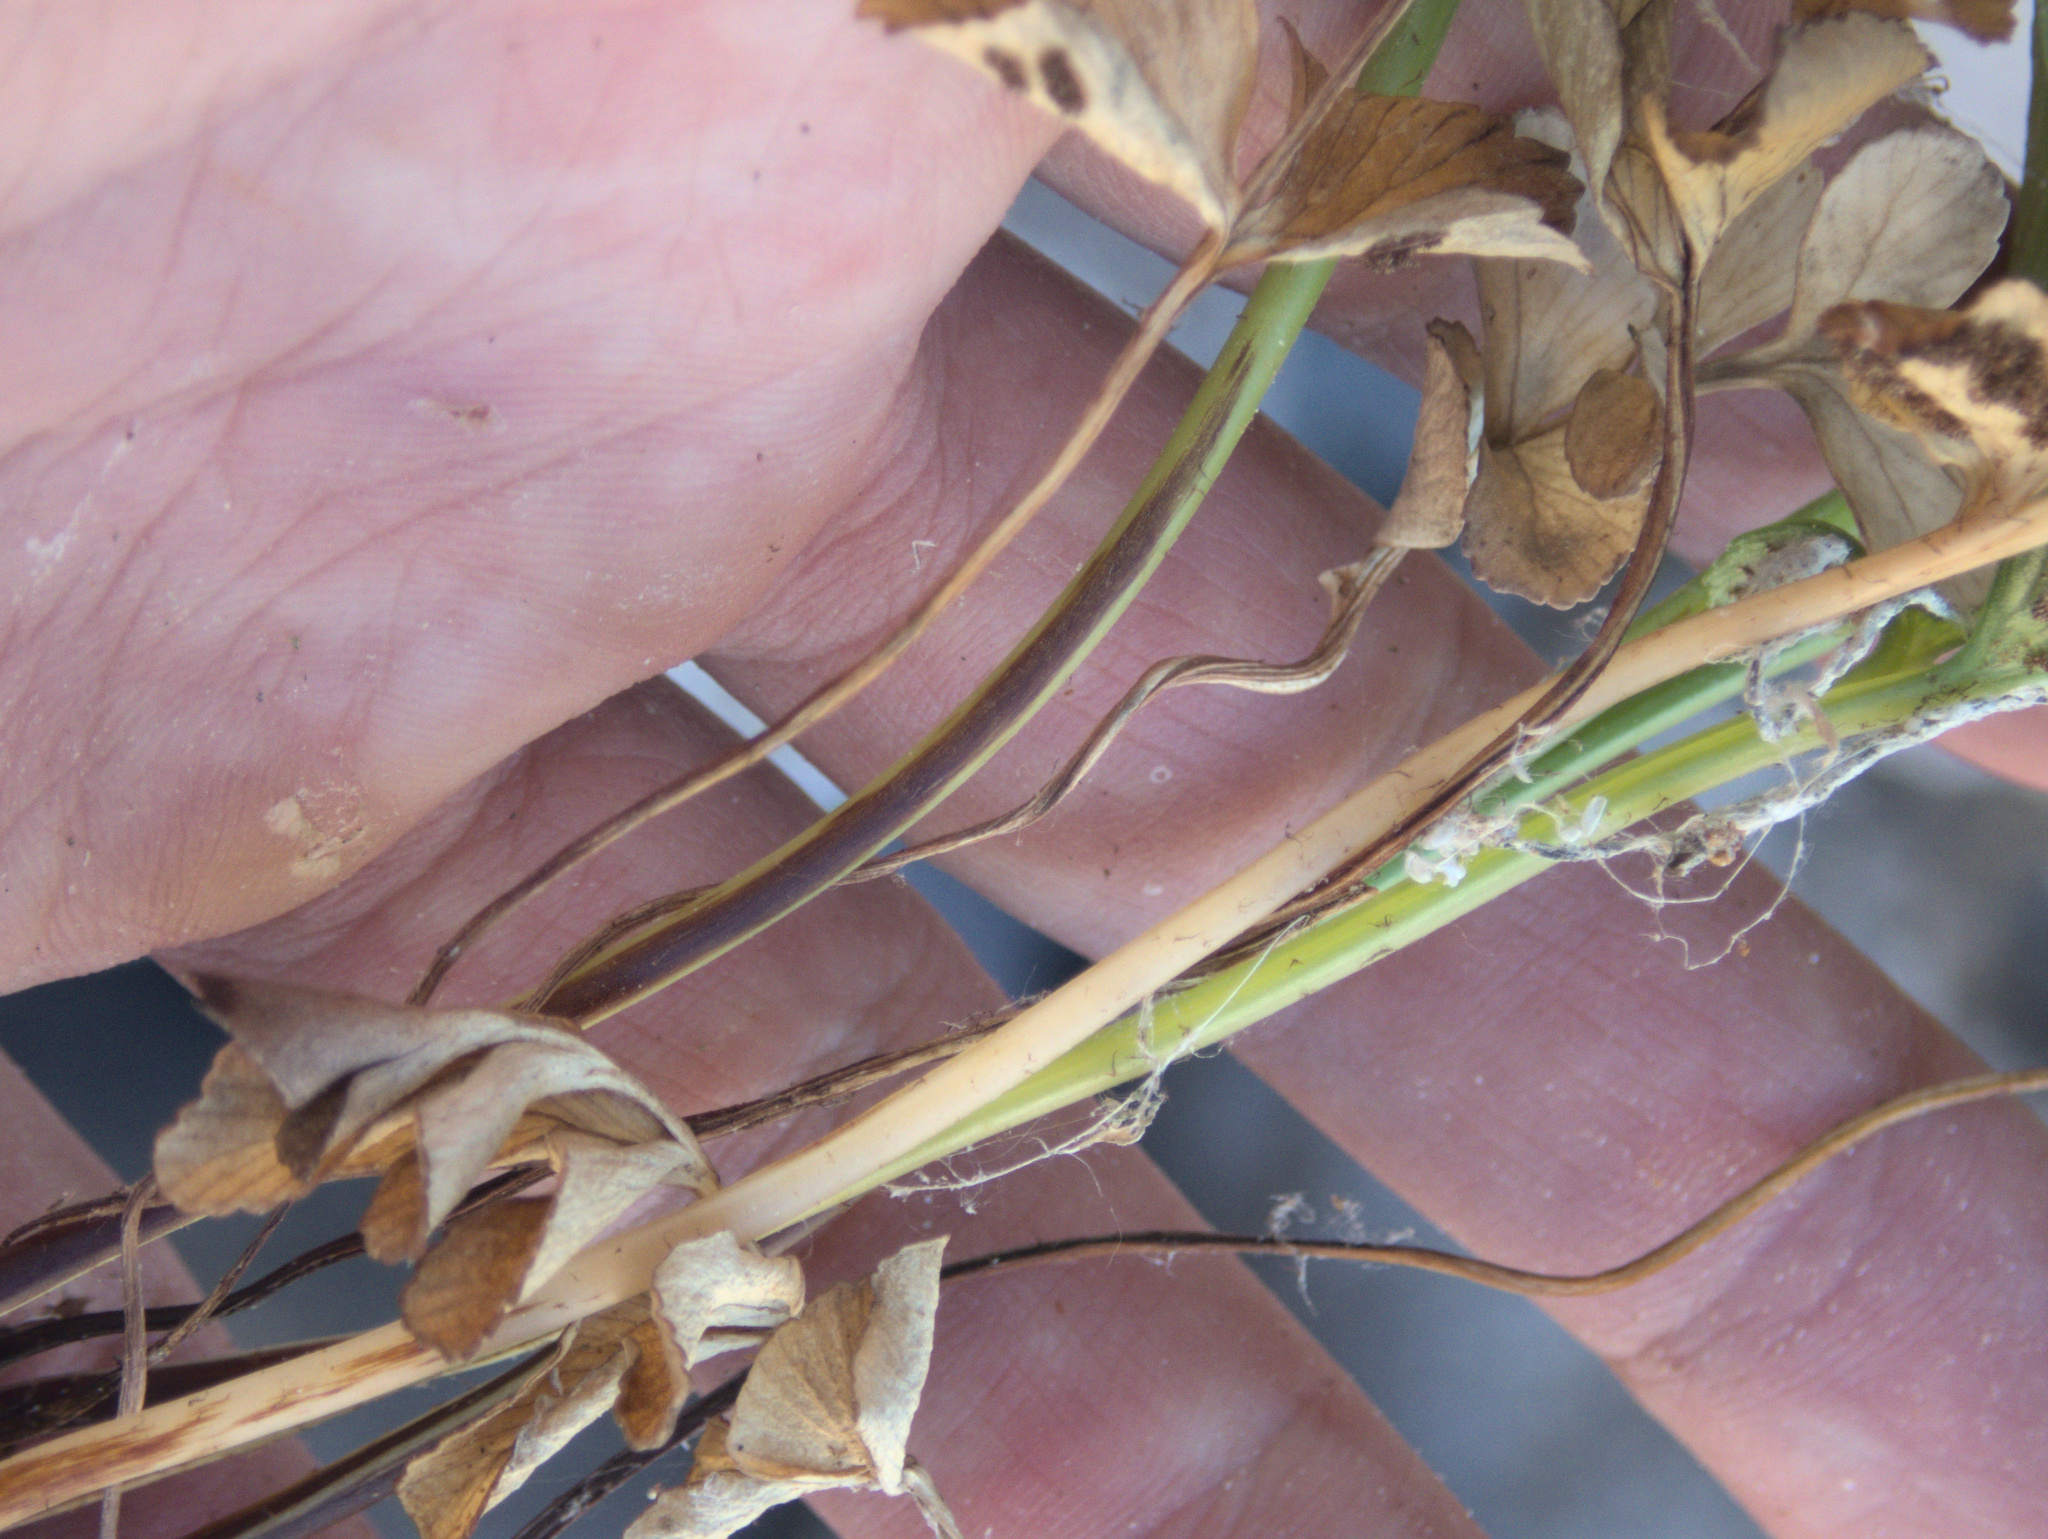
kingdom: Plantae
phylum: Tracheophyta
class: Polypodiopsida
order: Polypodiales
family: Aspleniaceae
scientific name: Aspleniaceae
